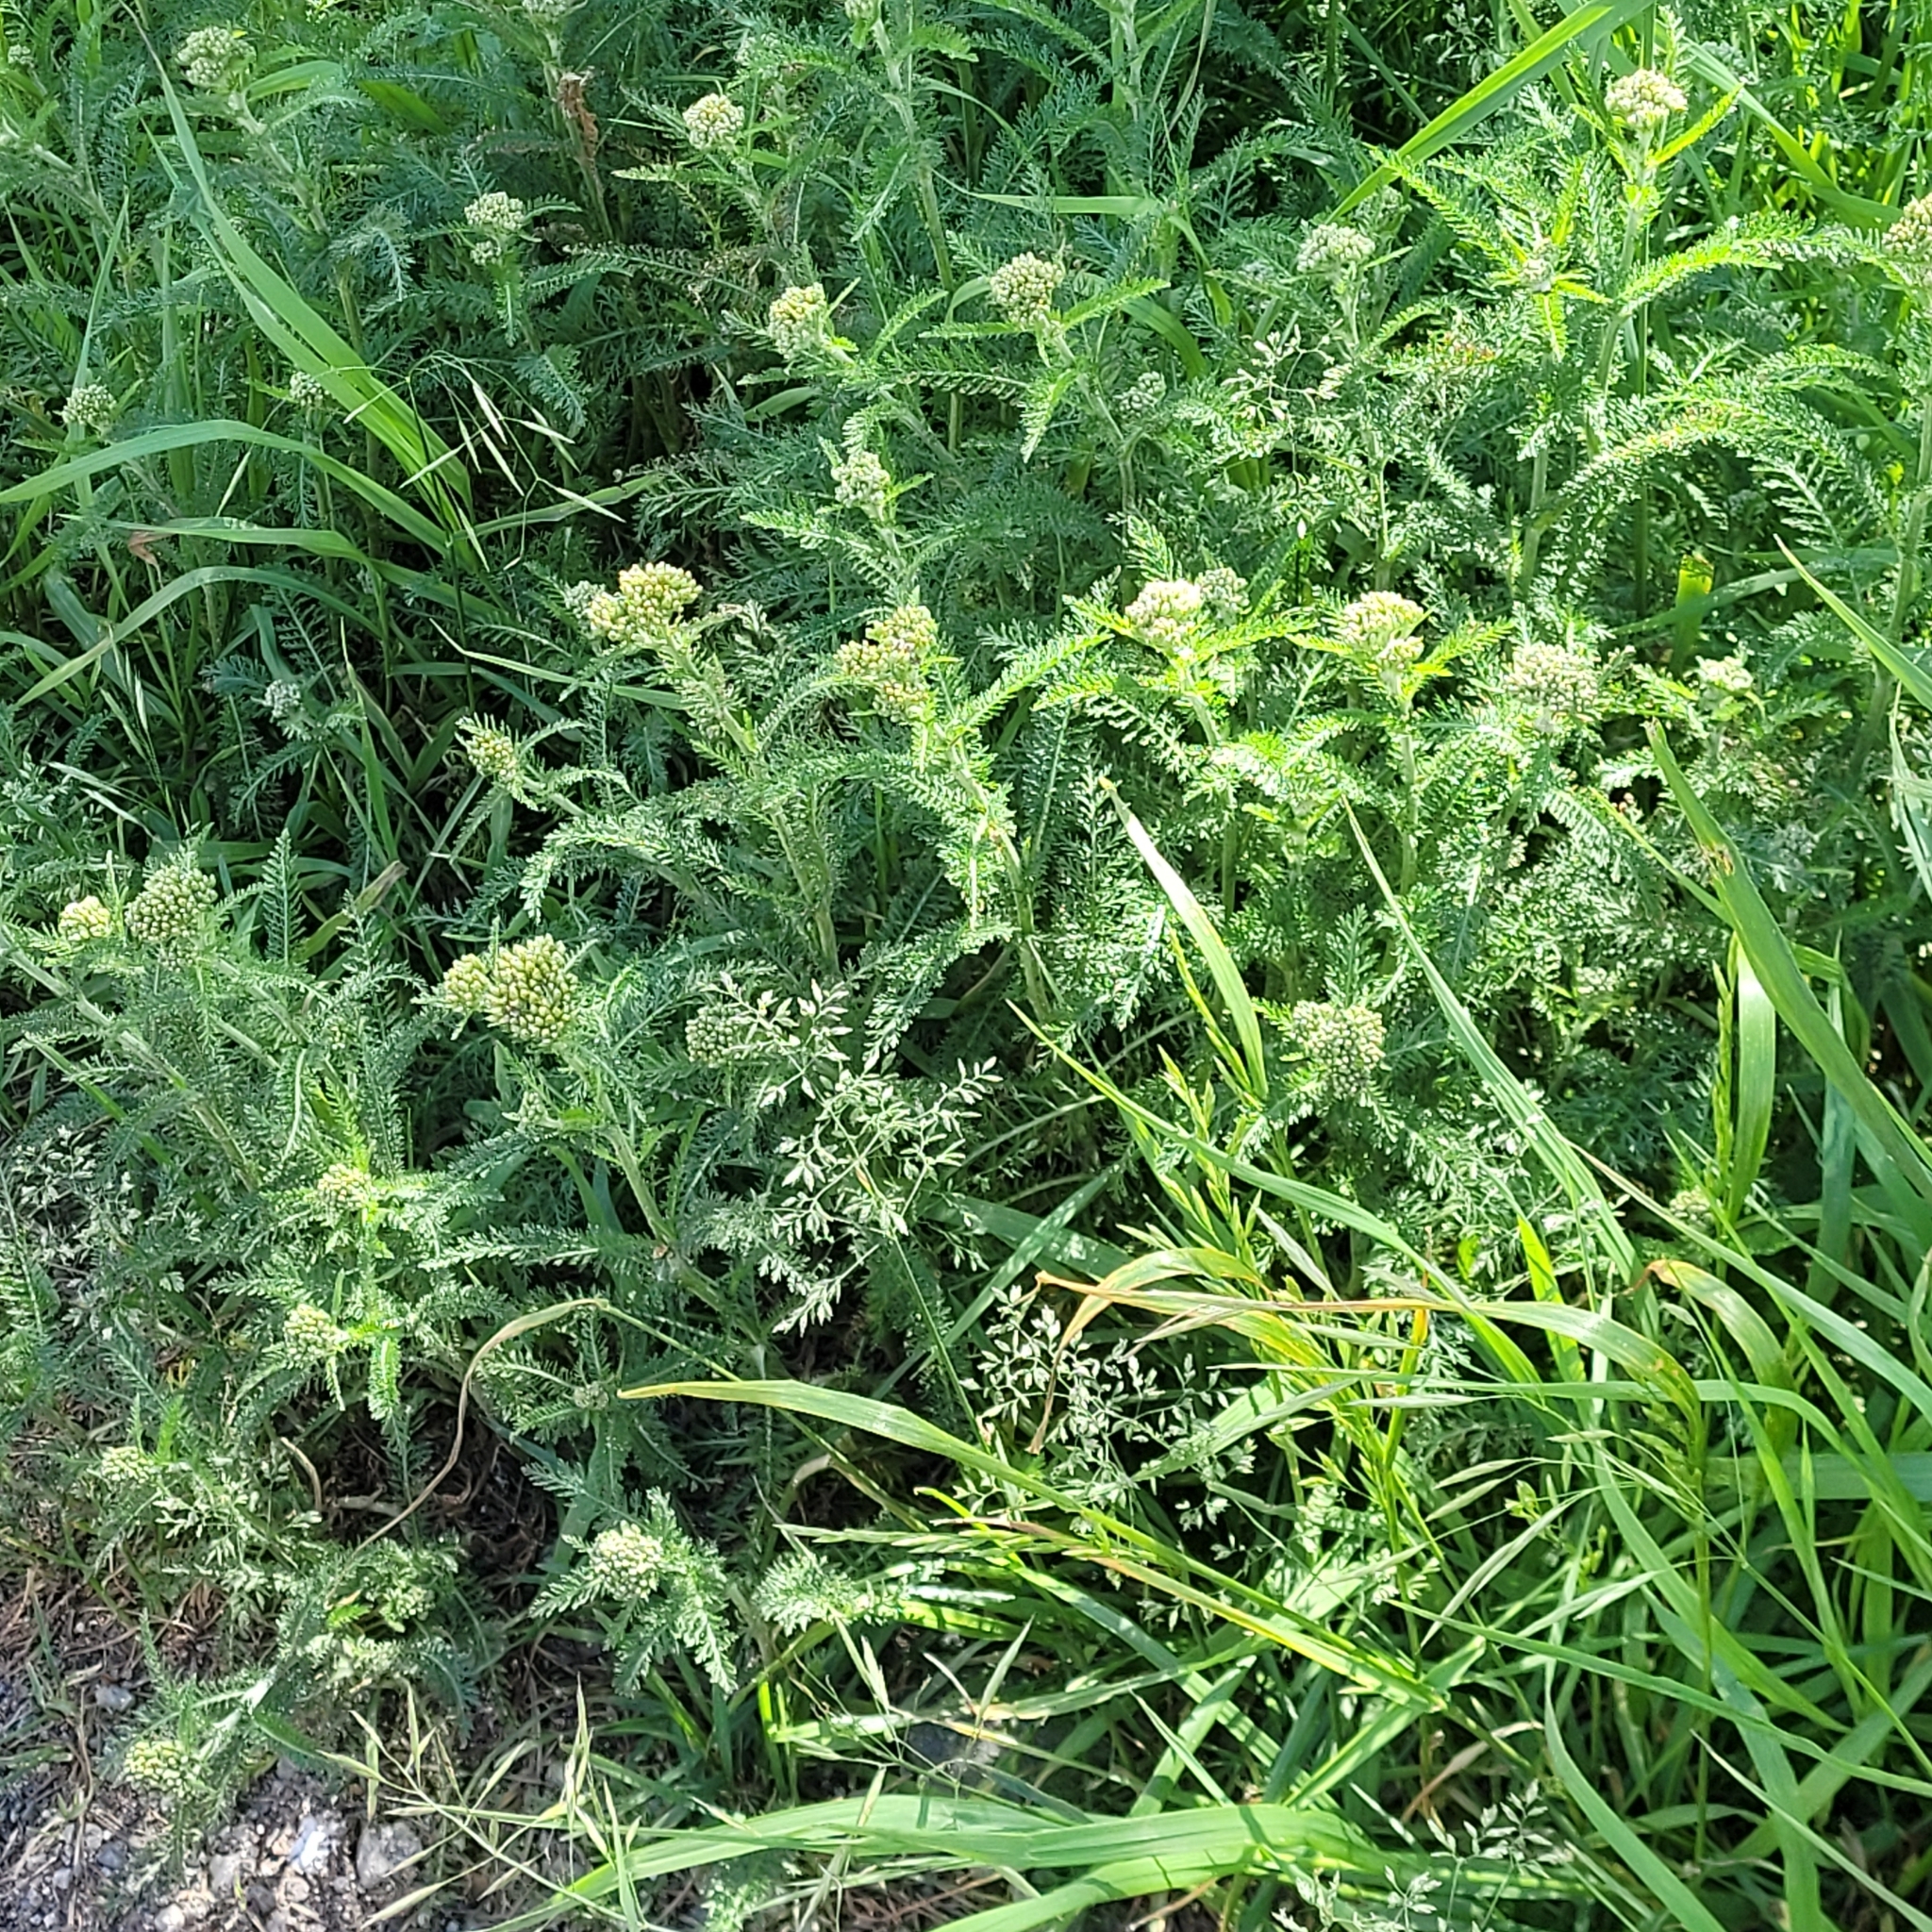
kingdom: Plantae
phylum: Tracheophyta
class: Magnoliopsida
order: Asterales
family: Asteraceae
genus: Achillea
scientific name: Achillea millefolium
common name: Yarrow
